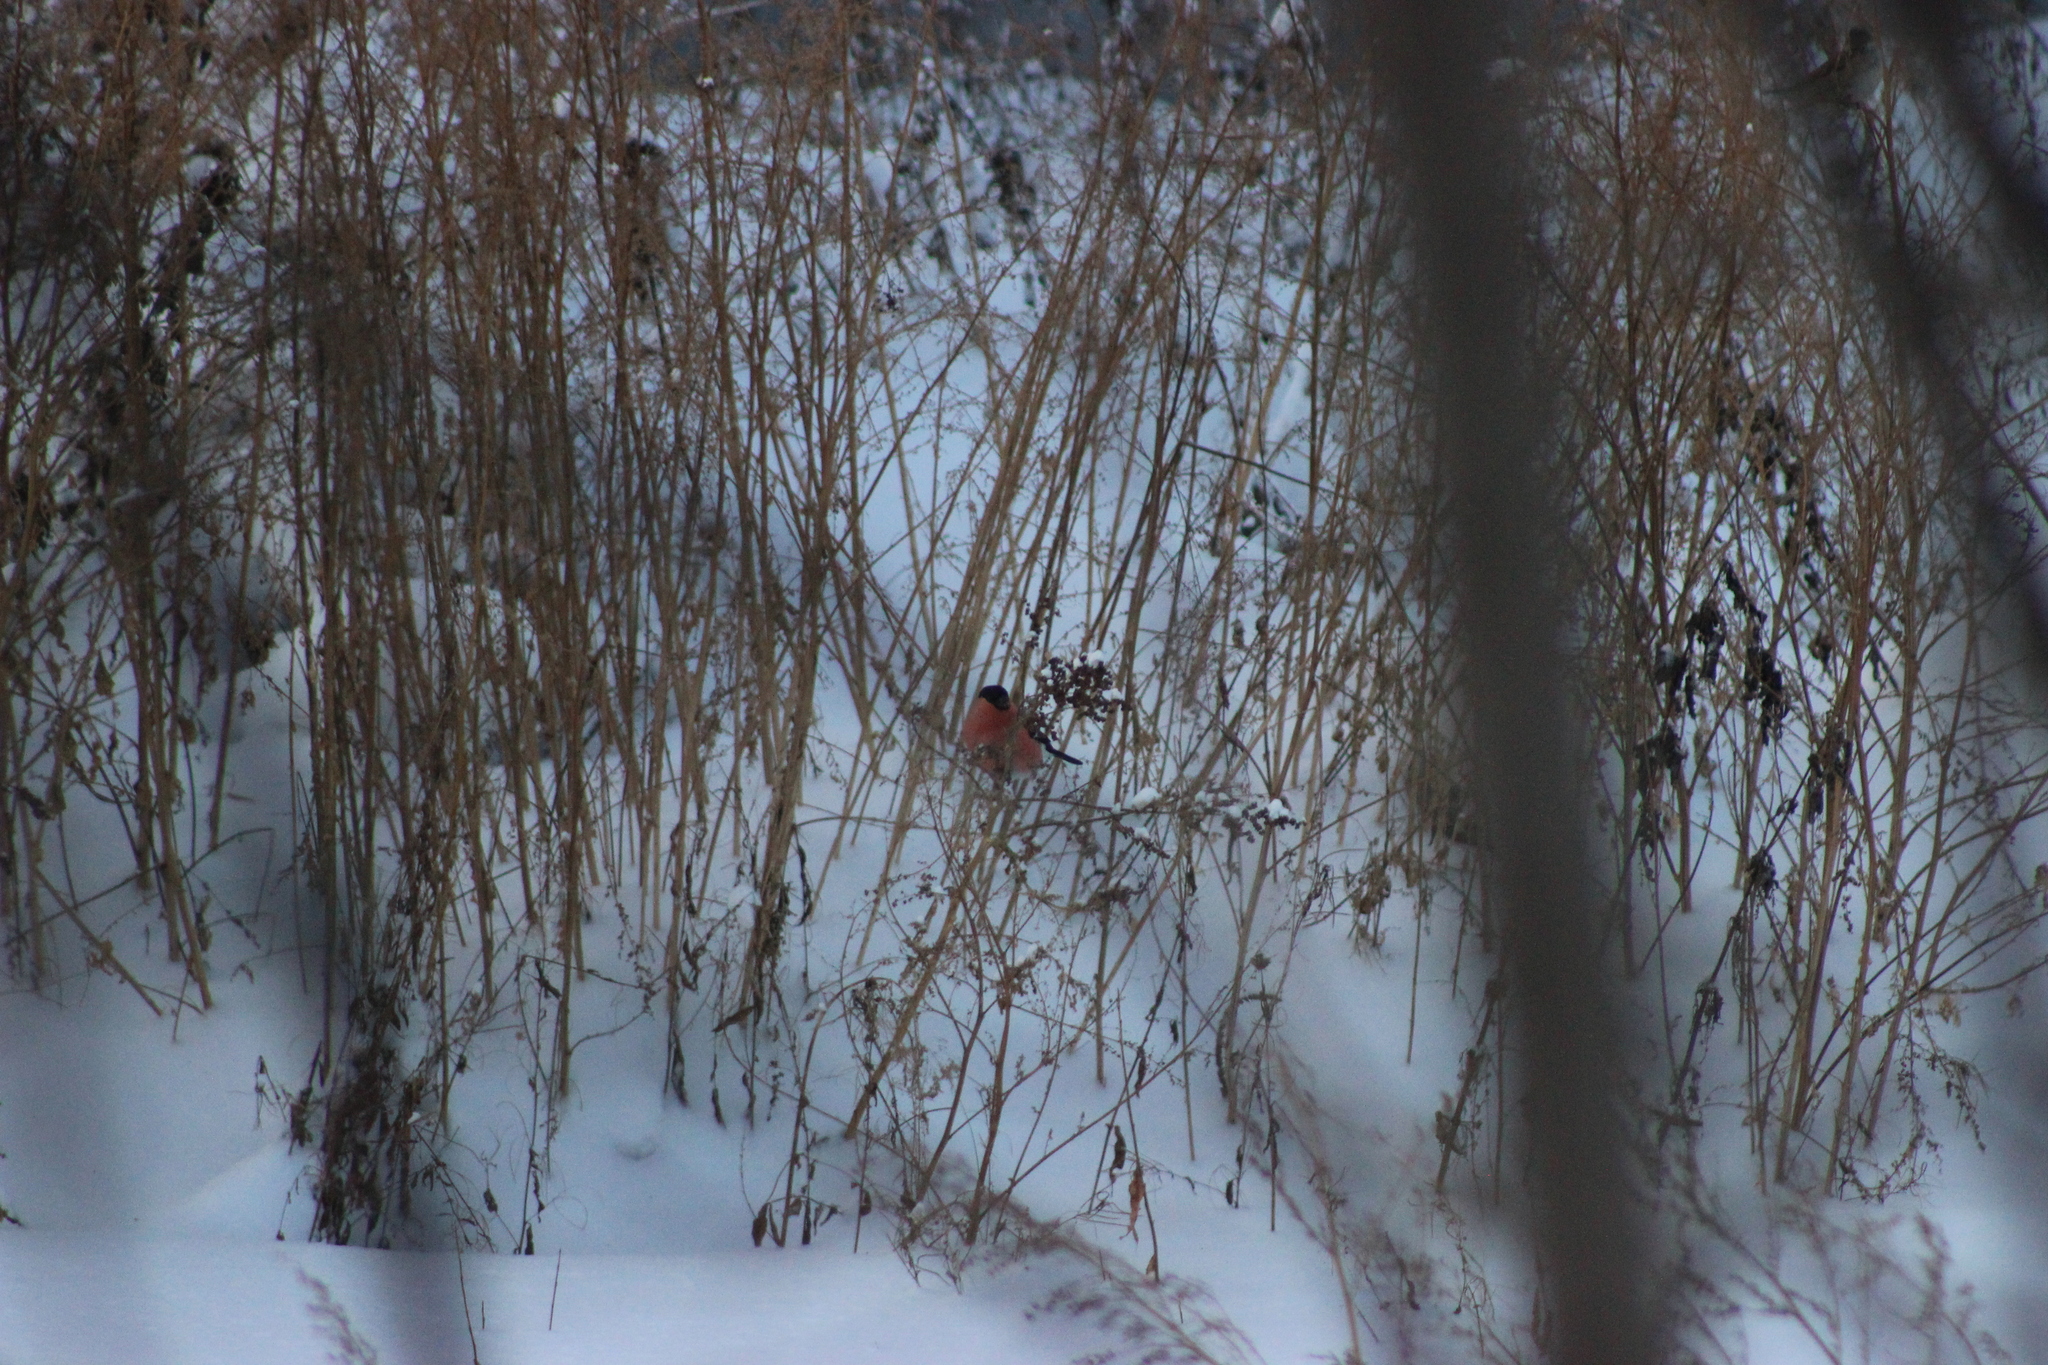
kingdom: Animalia
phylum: Chordata
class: Aves
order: Passeriformes
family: Fringillidae
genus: Pyrrhula
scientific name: Pyrrhula pyrrhula
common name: Eurasian bullfinch
